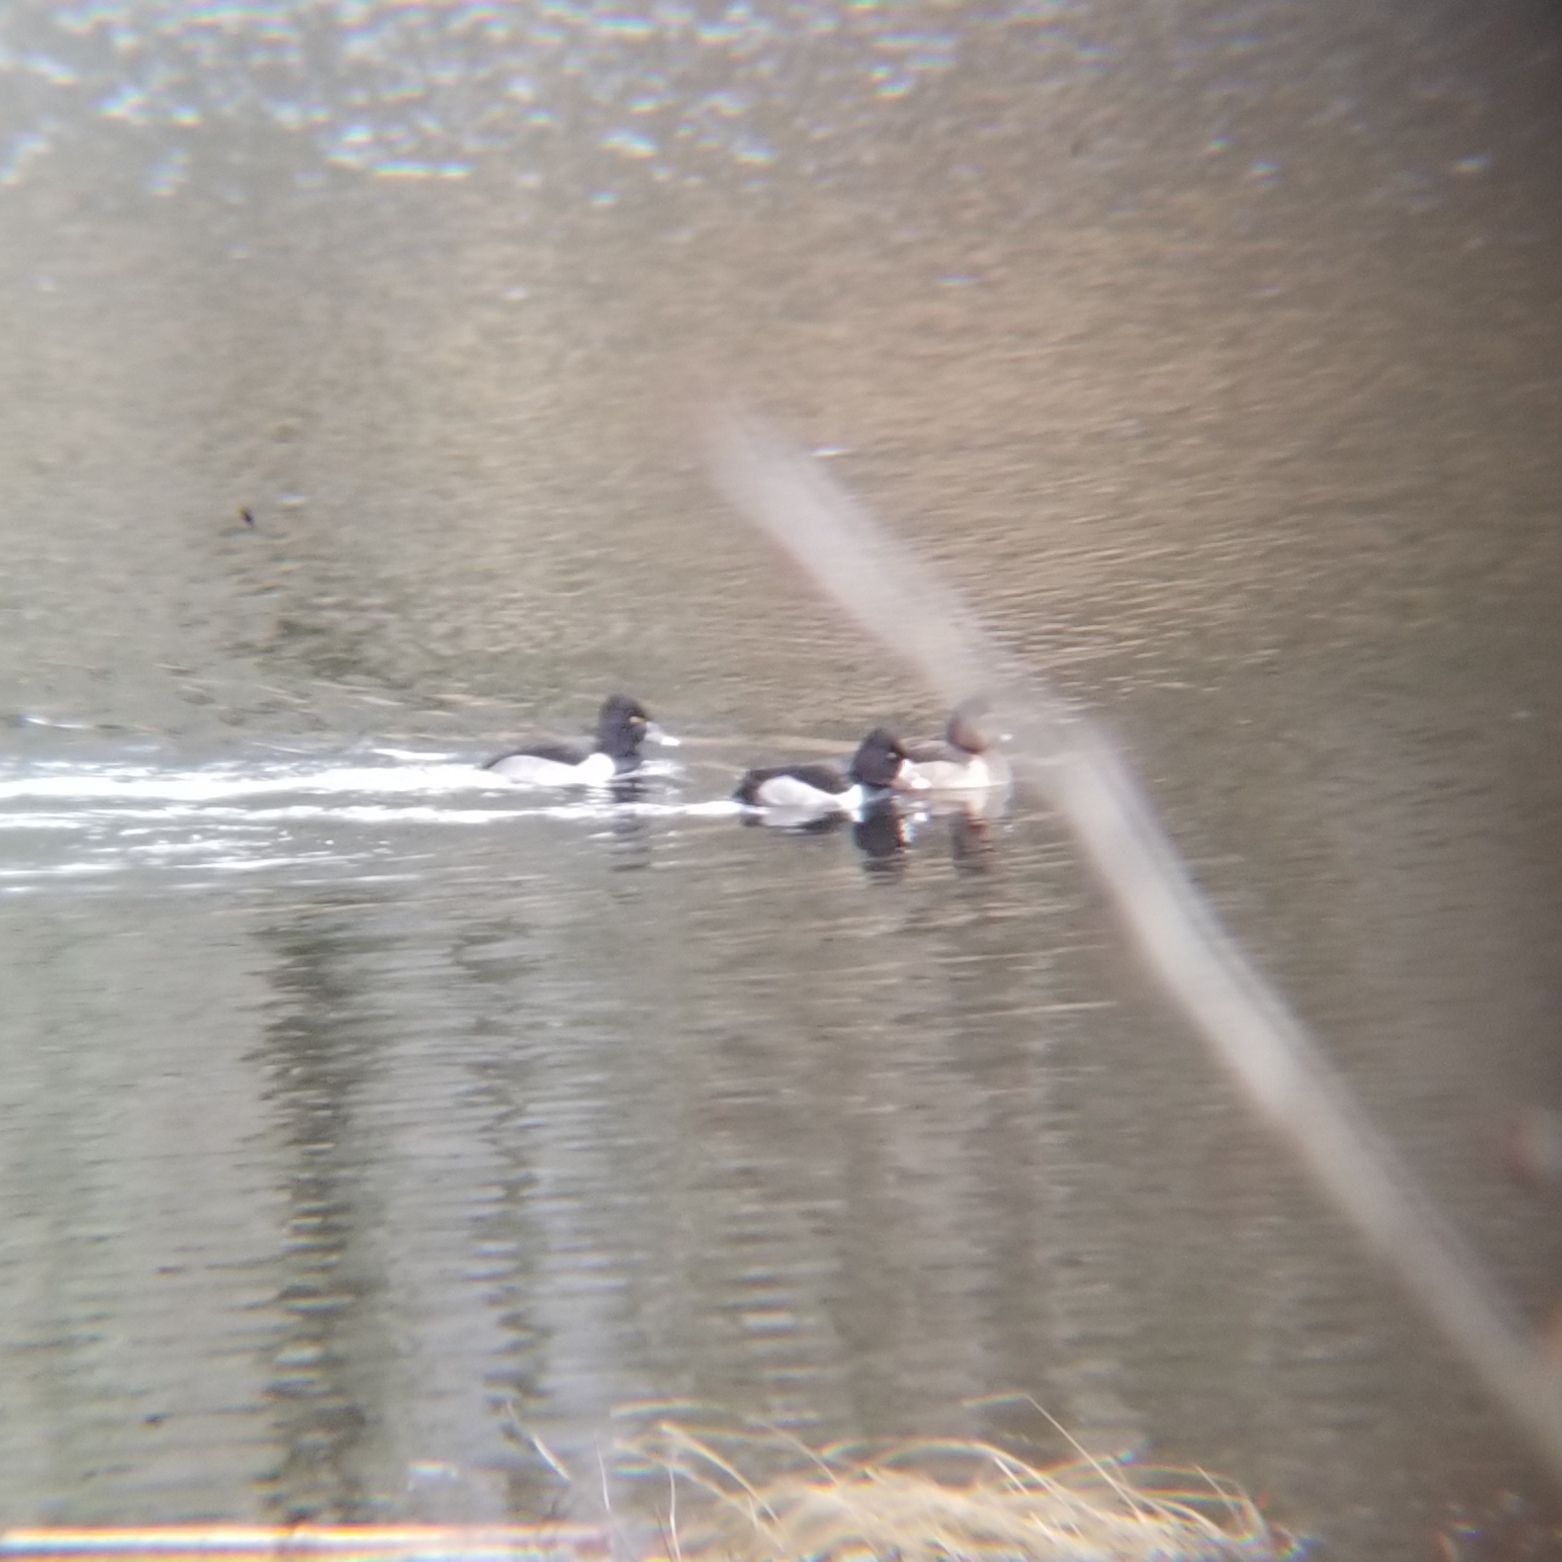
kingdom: Animalia
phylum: Chordata
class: Aves
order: Anseriformes
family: Anatidae
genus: Aythya
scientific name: Aythya collaris
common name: Ring-necked duck
